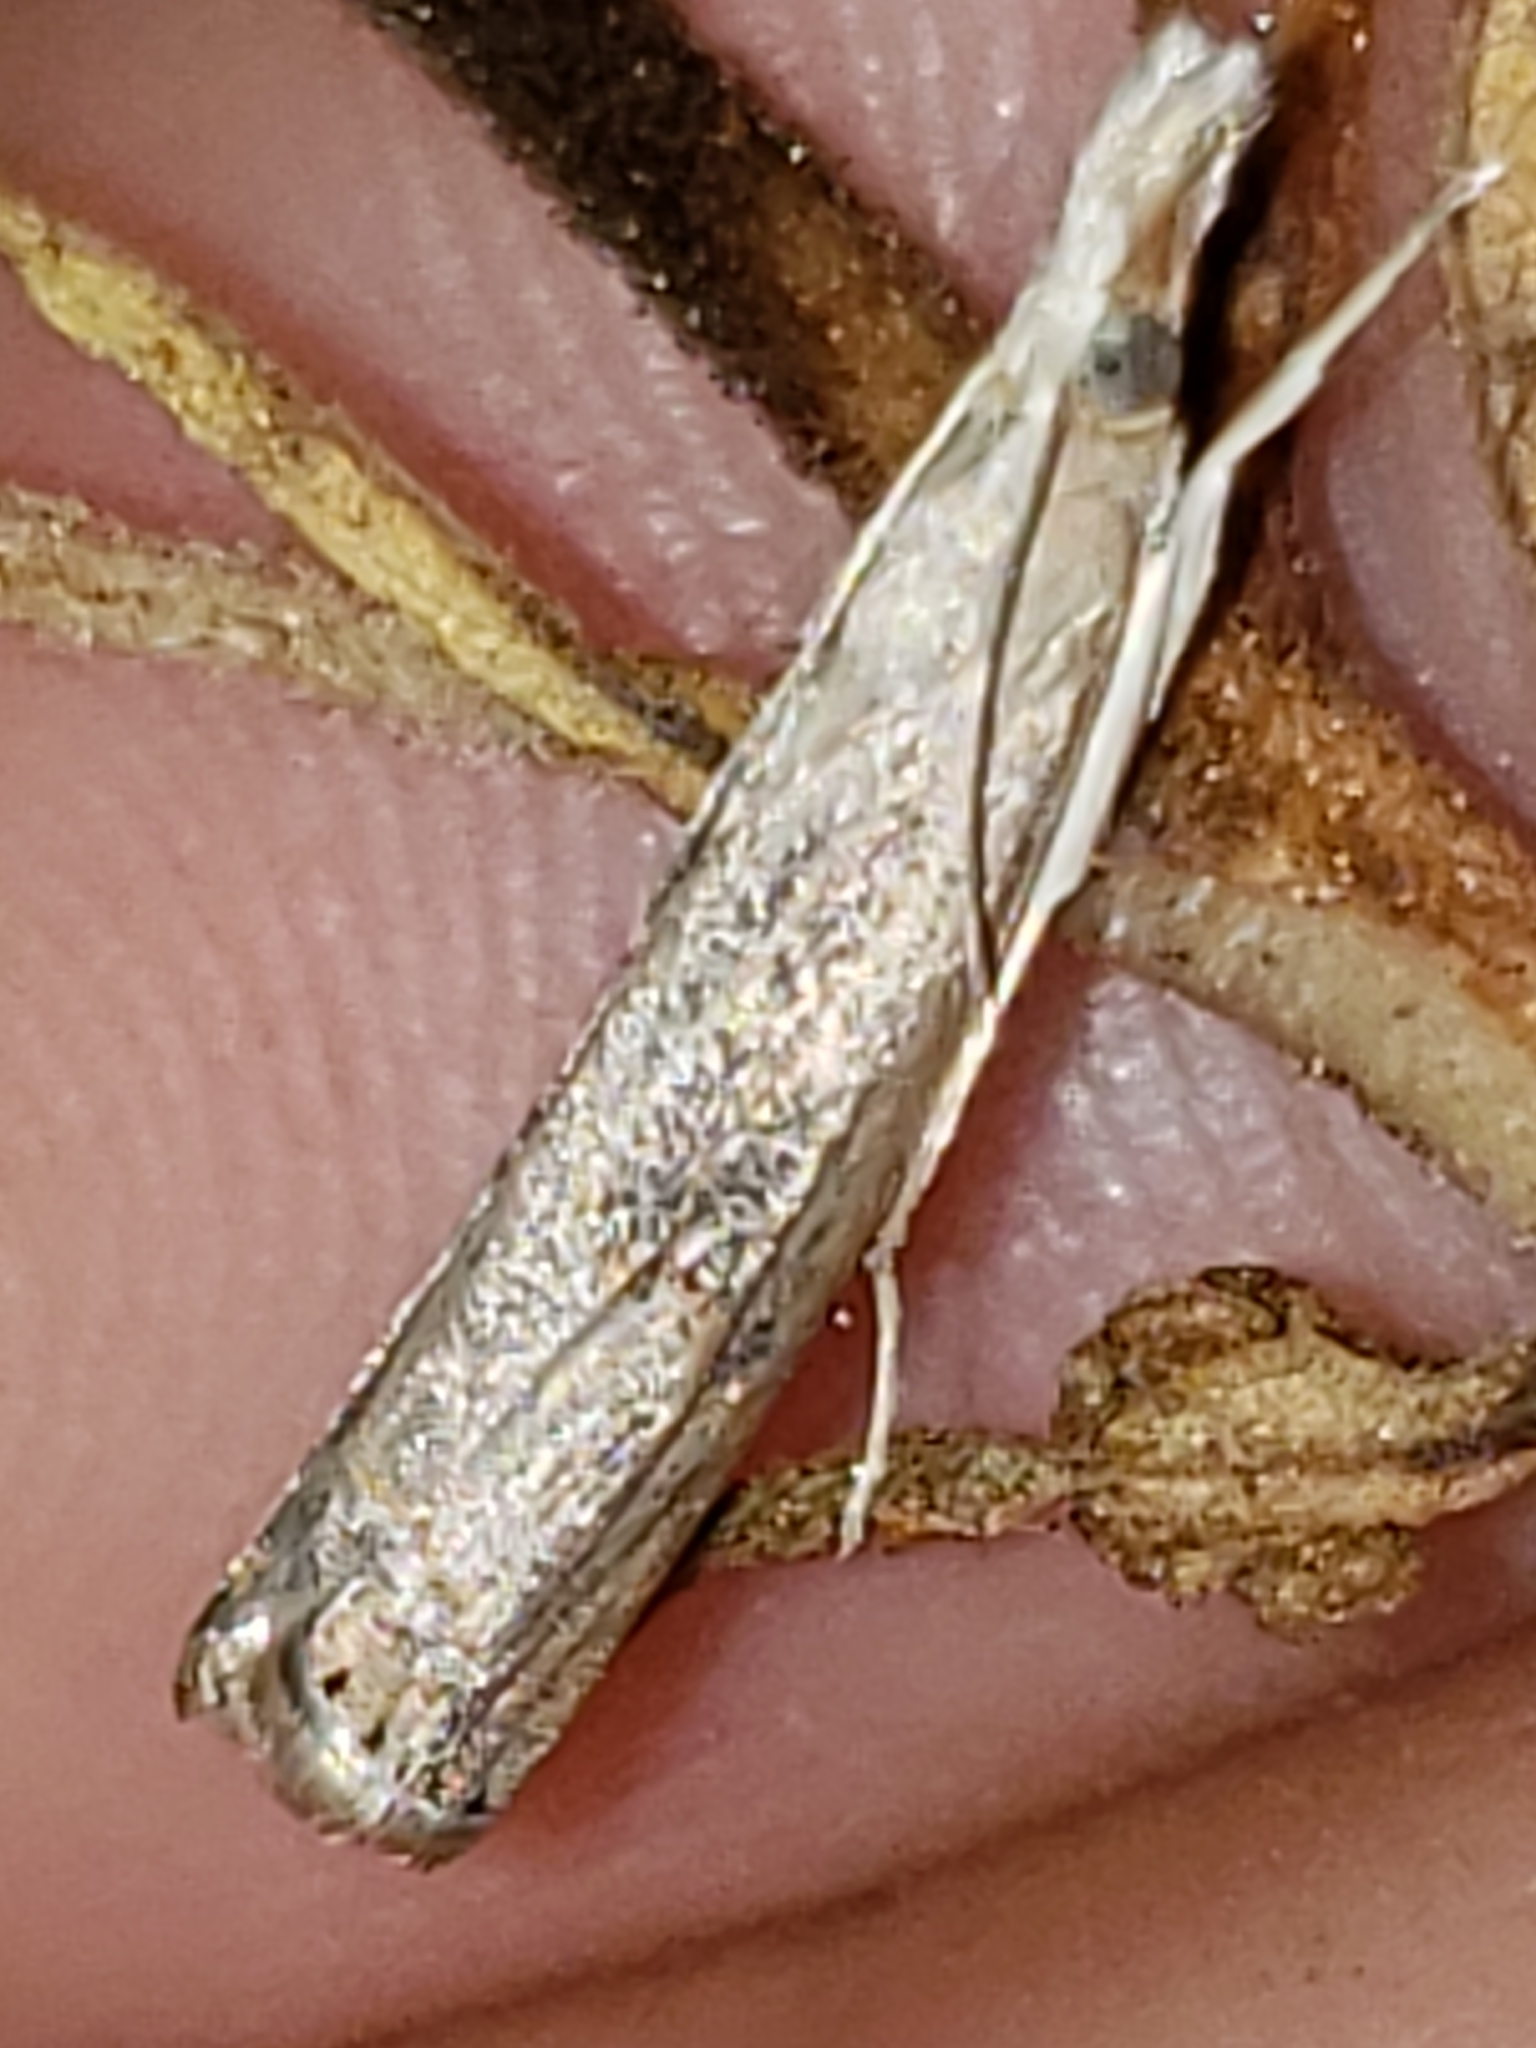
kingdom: Animalia
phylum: Arthropoda
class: Insecta
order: Lepidoptera
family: Crambidae
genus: Parapediasia
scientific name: Parapediasia teterellus
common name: Bluegrass webworm moth
